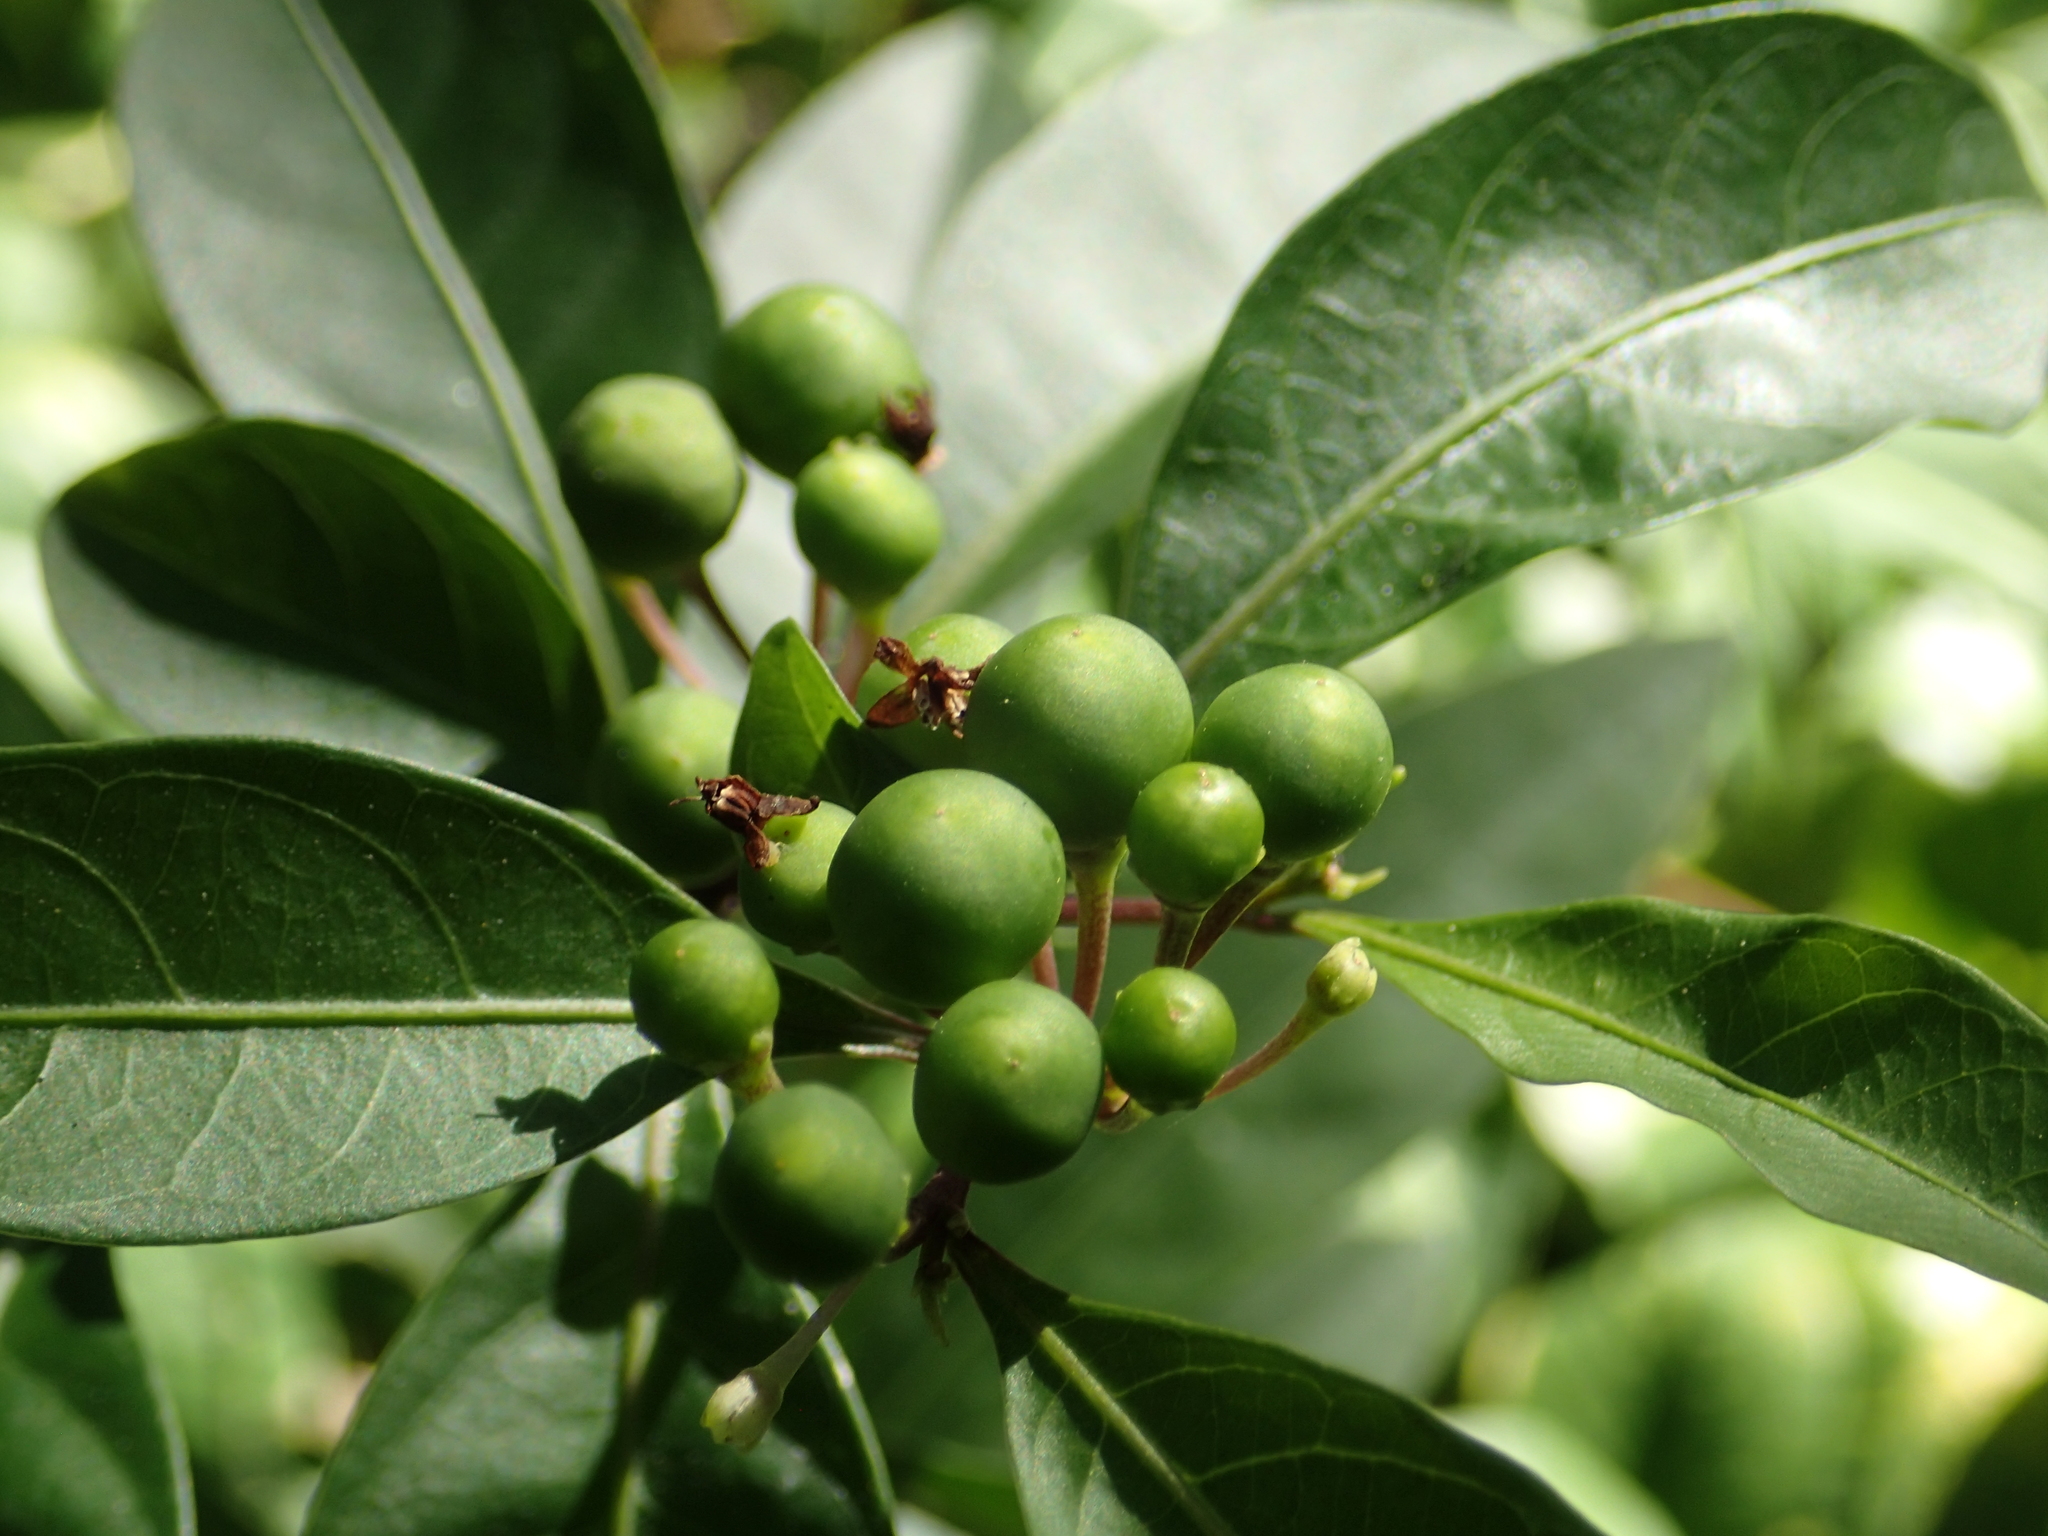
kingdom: Plantae
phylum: Tracheophyta
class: Magnoliopsida
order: Solanales
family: Solanaceae
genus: Solanum
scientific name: Solanum diphyllum
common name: Twoleaf nightshade
